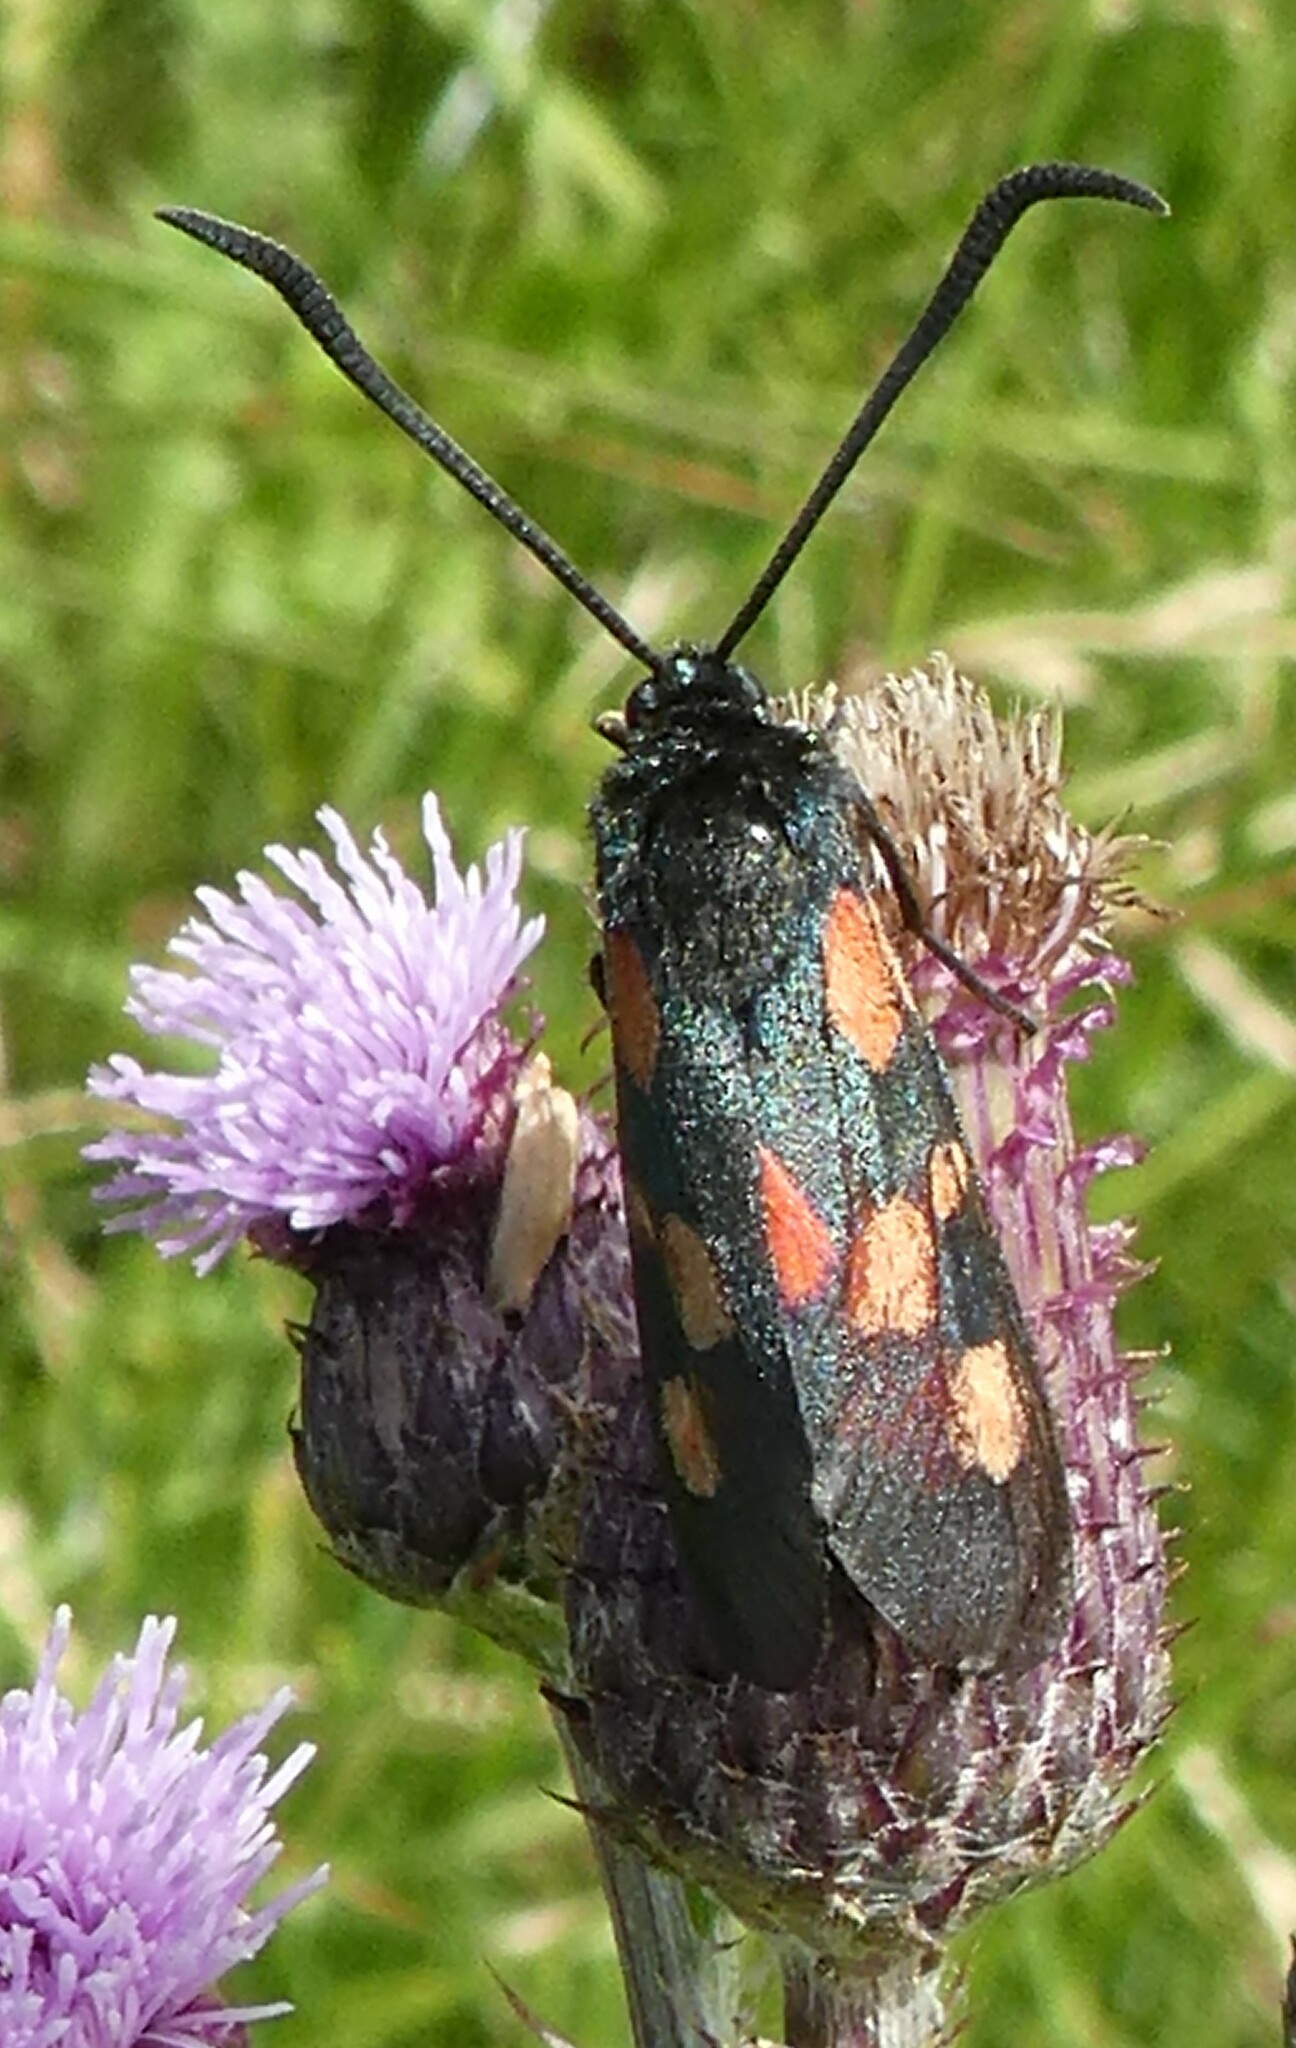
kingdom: Animalia
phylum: Arthropoda
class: Insecta
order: Lepidoptera
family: Zygaenidae
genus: Zygaena
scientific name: Zygaena
